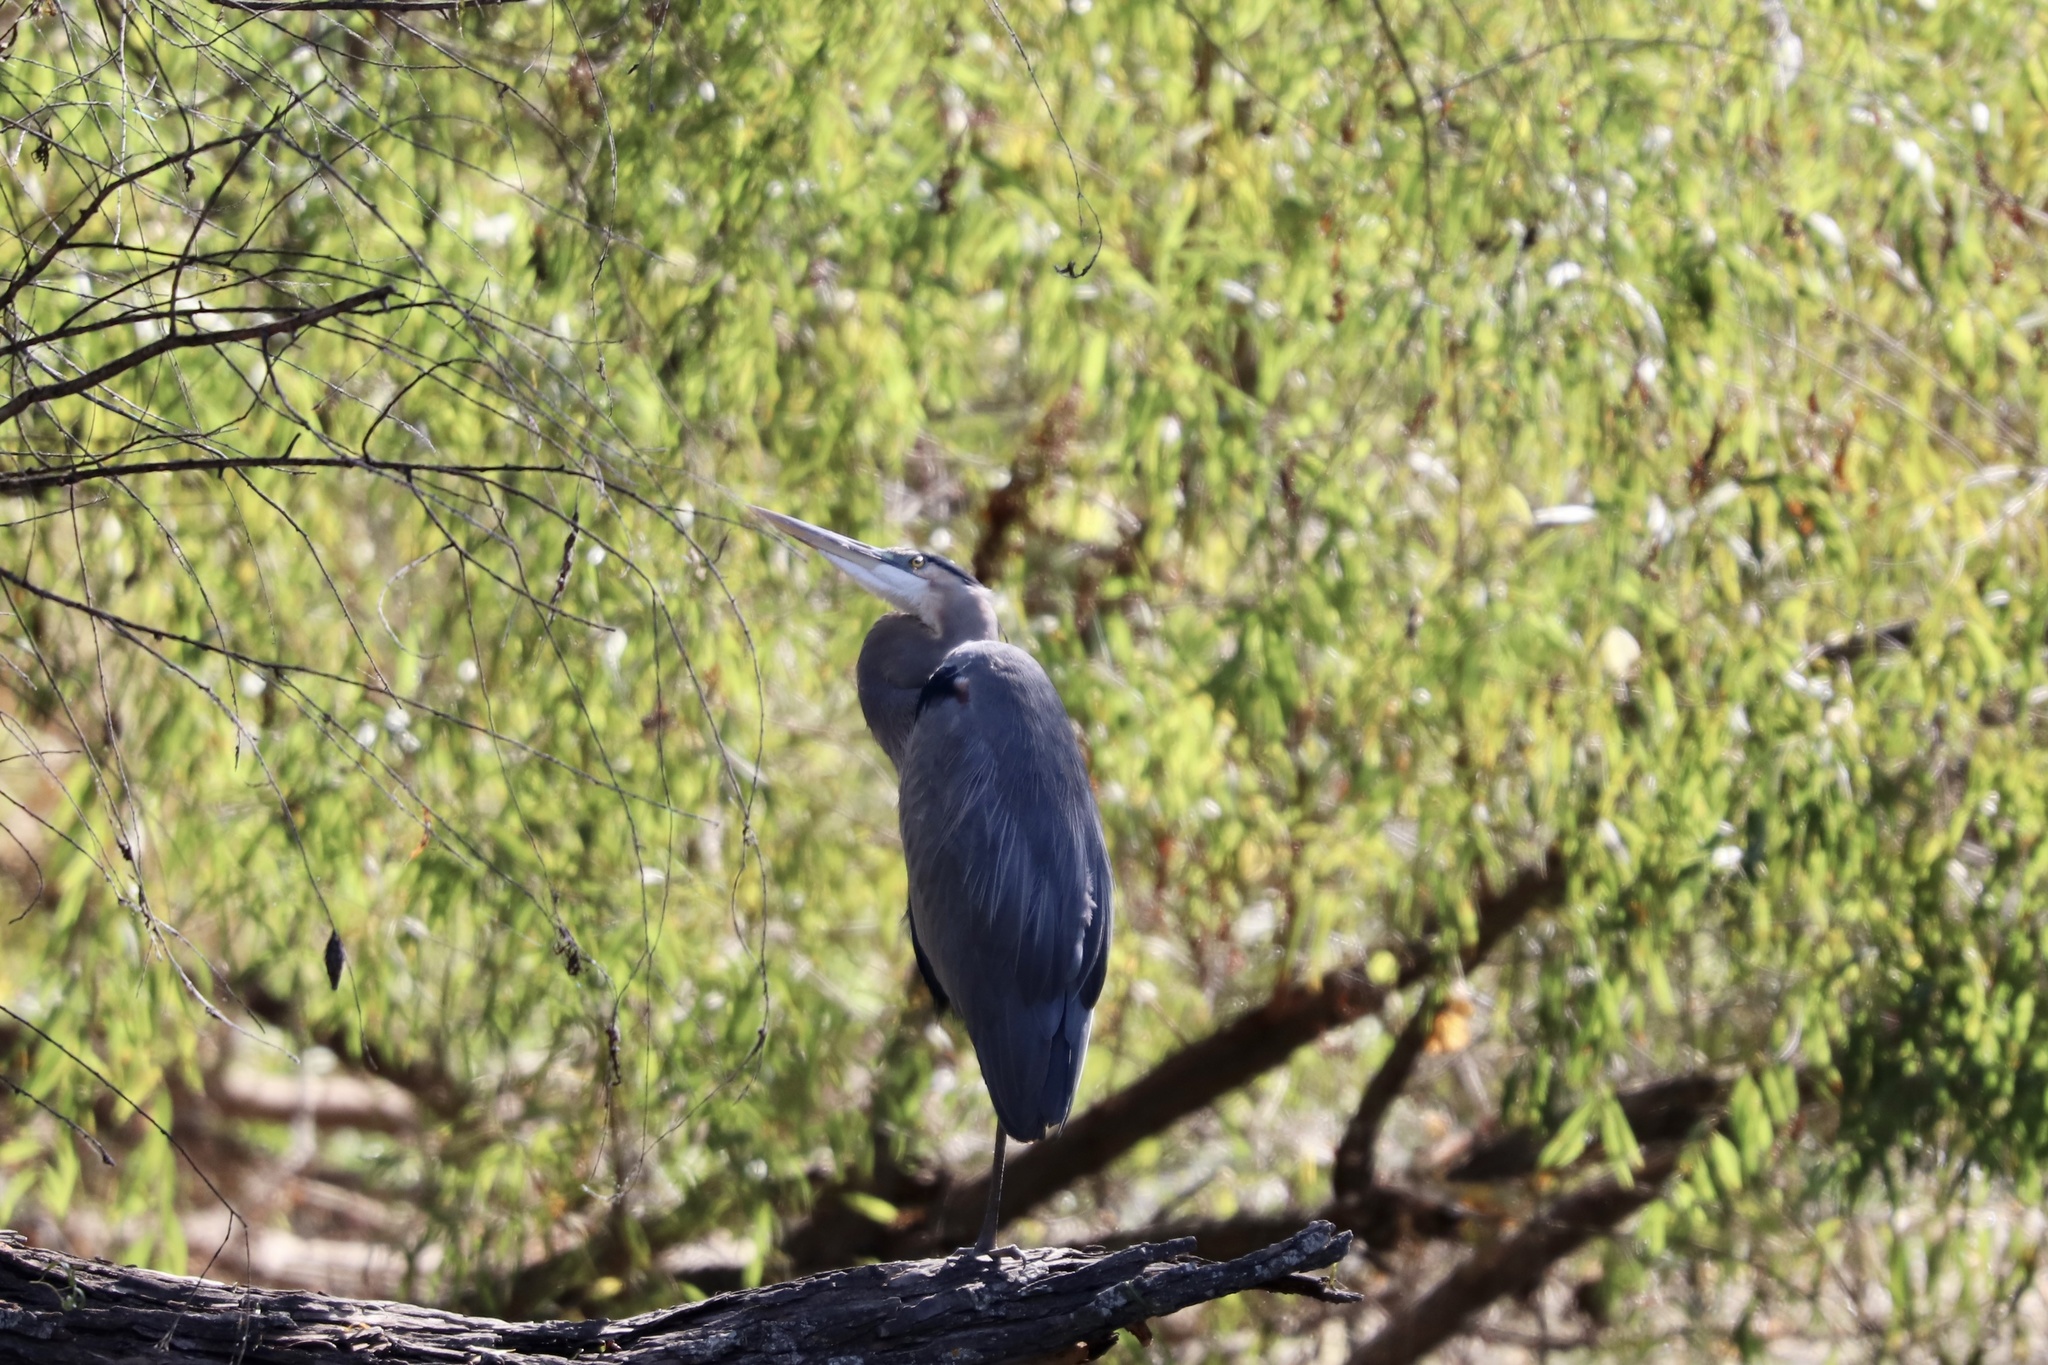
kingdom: Animalia
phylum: Chordata
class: Aves
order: Pelecaniformes
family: Ardeidae
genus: Ardea
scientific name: Ardea herodias
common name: Great blue heron
